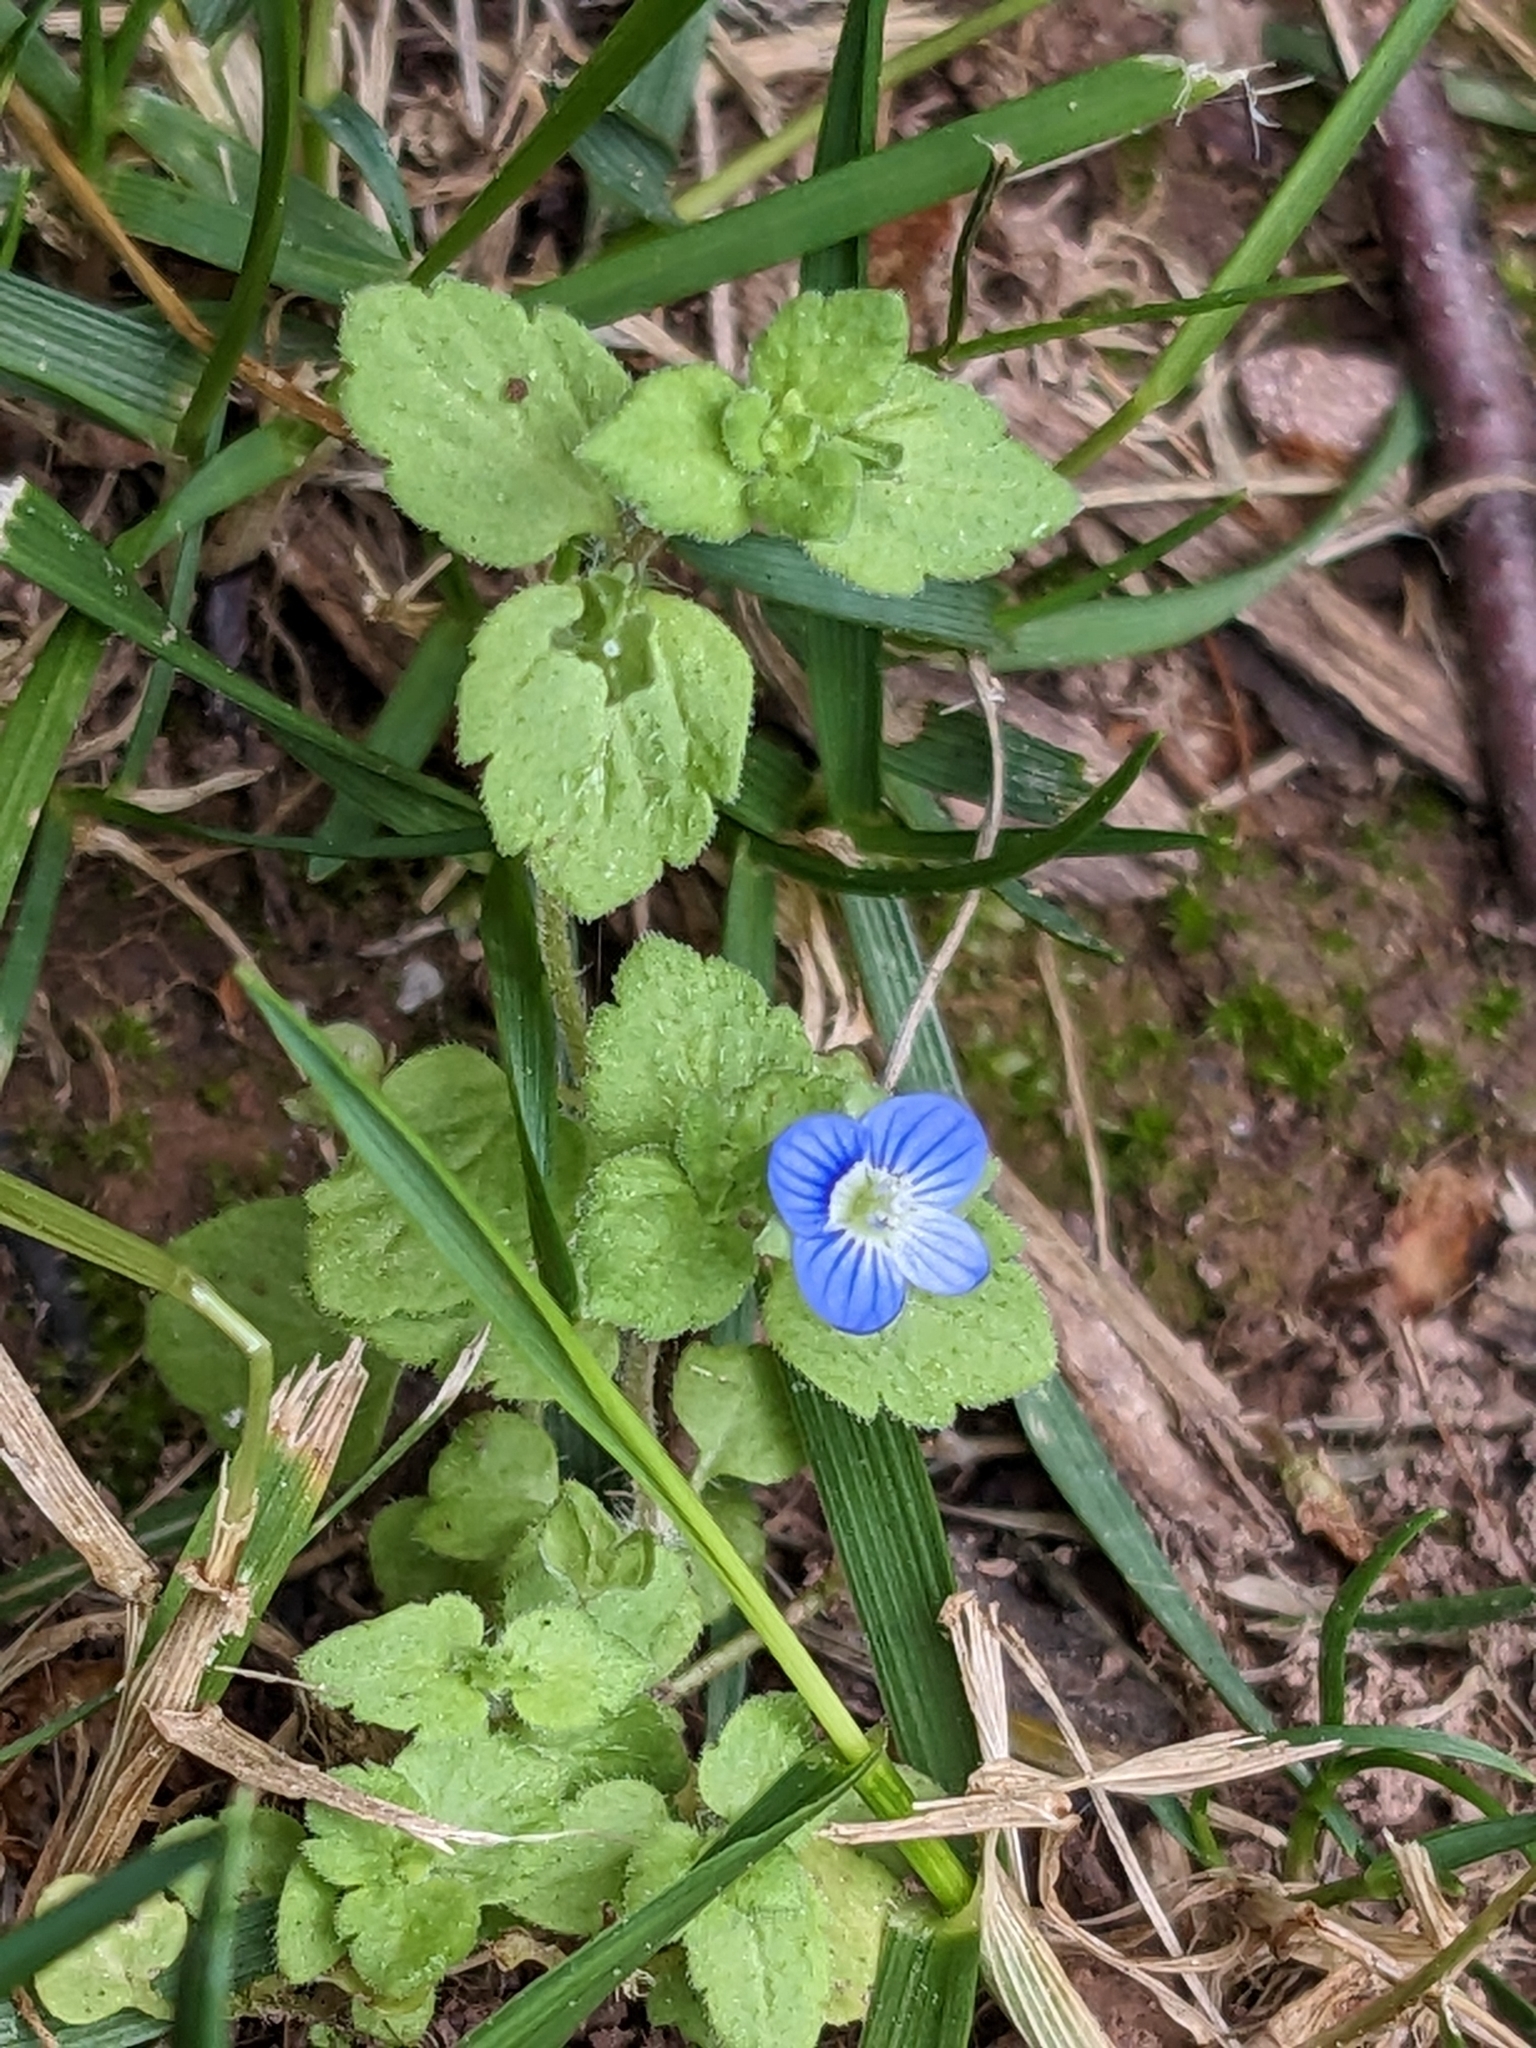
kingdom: Plantae
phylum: Tracheophyta
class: Magnoliopsida
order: Lamiales
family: Plantaginaceae
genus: Veronica
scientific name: Veronica persica
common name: Common field-speedwell
